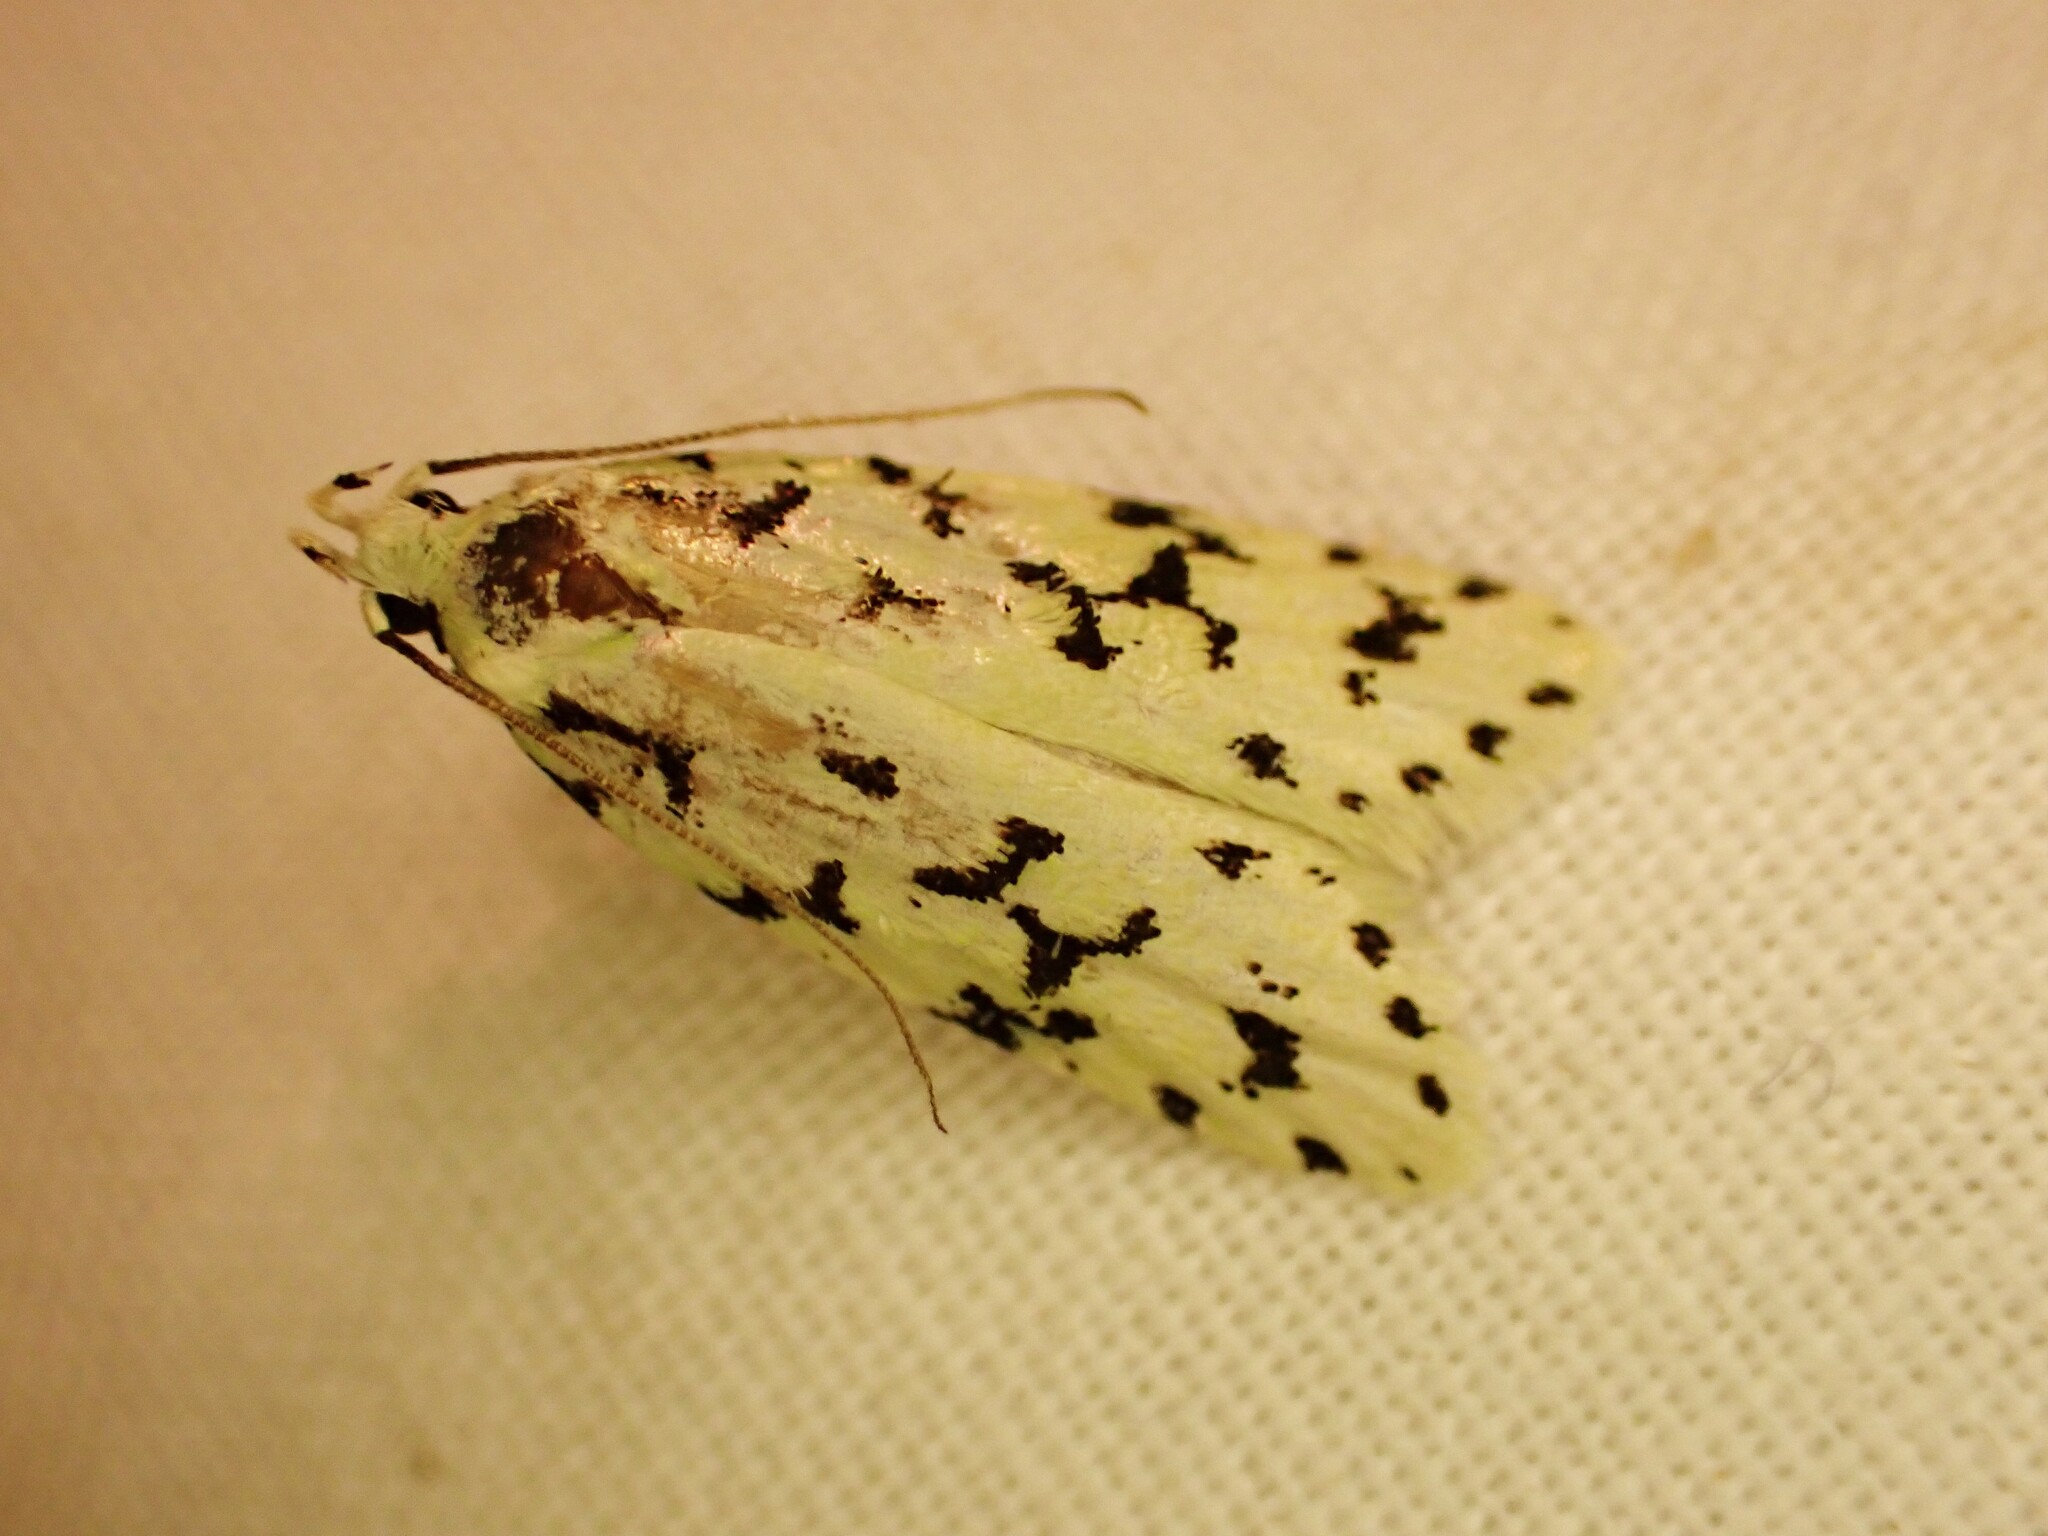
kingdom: Animalia
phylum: Arthropoda
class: Insecta
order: Lepidoptera
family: Oecophoridae
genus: Izatha
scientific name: Izatha huttoni
